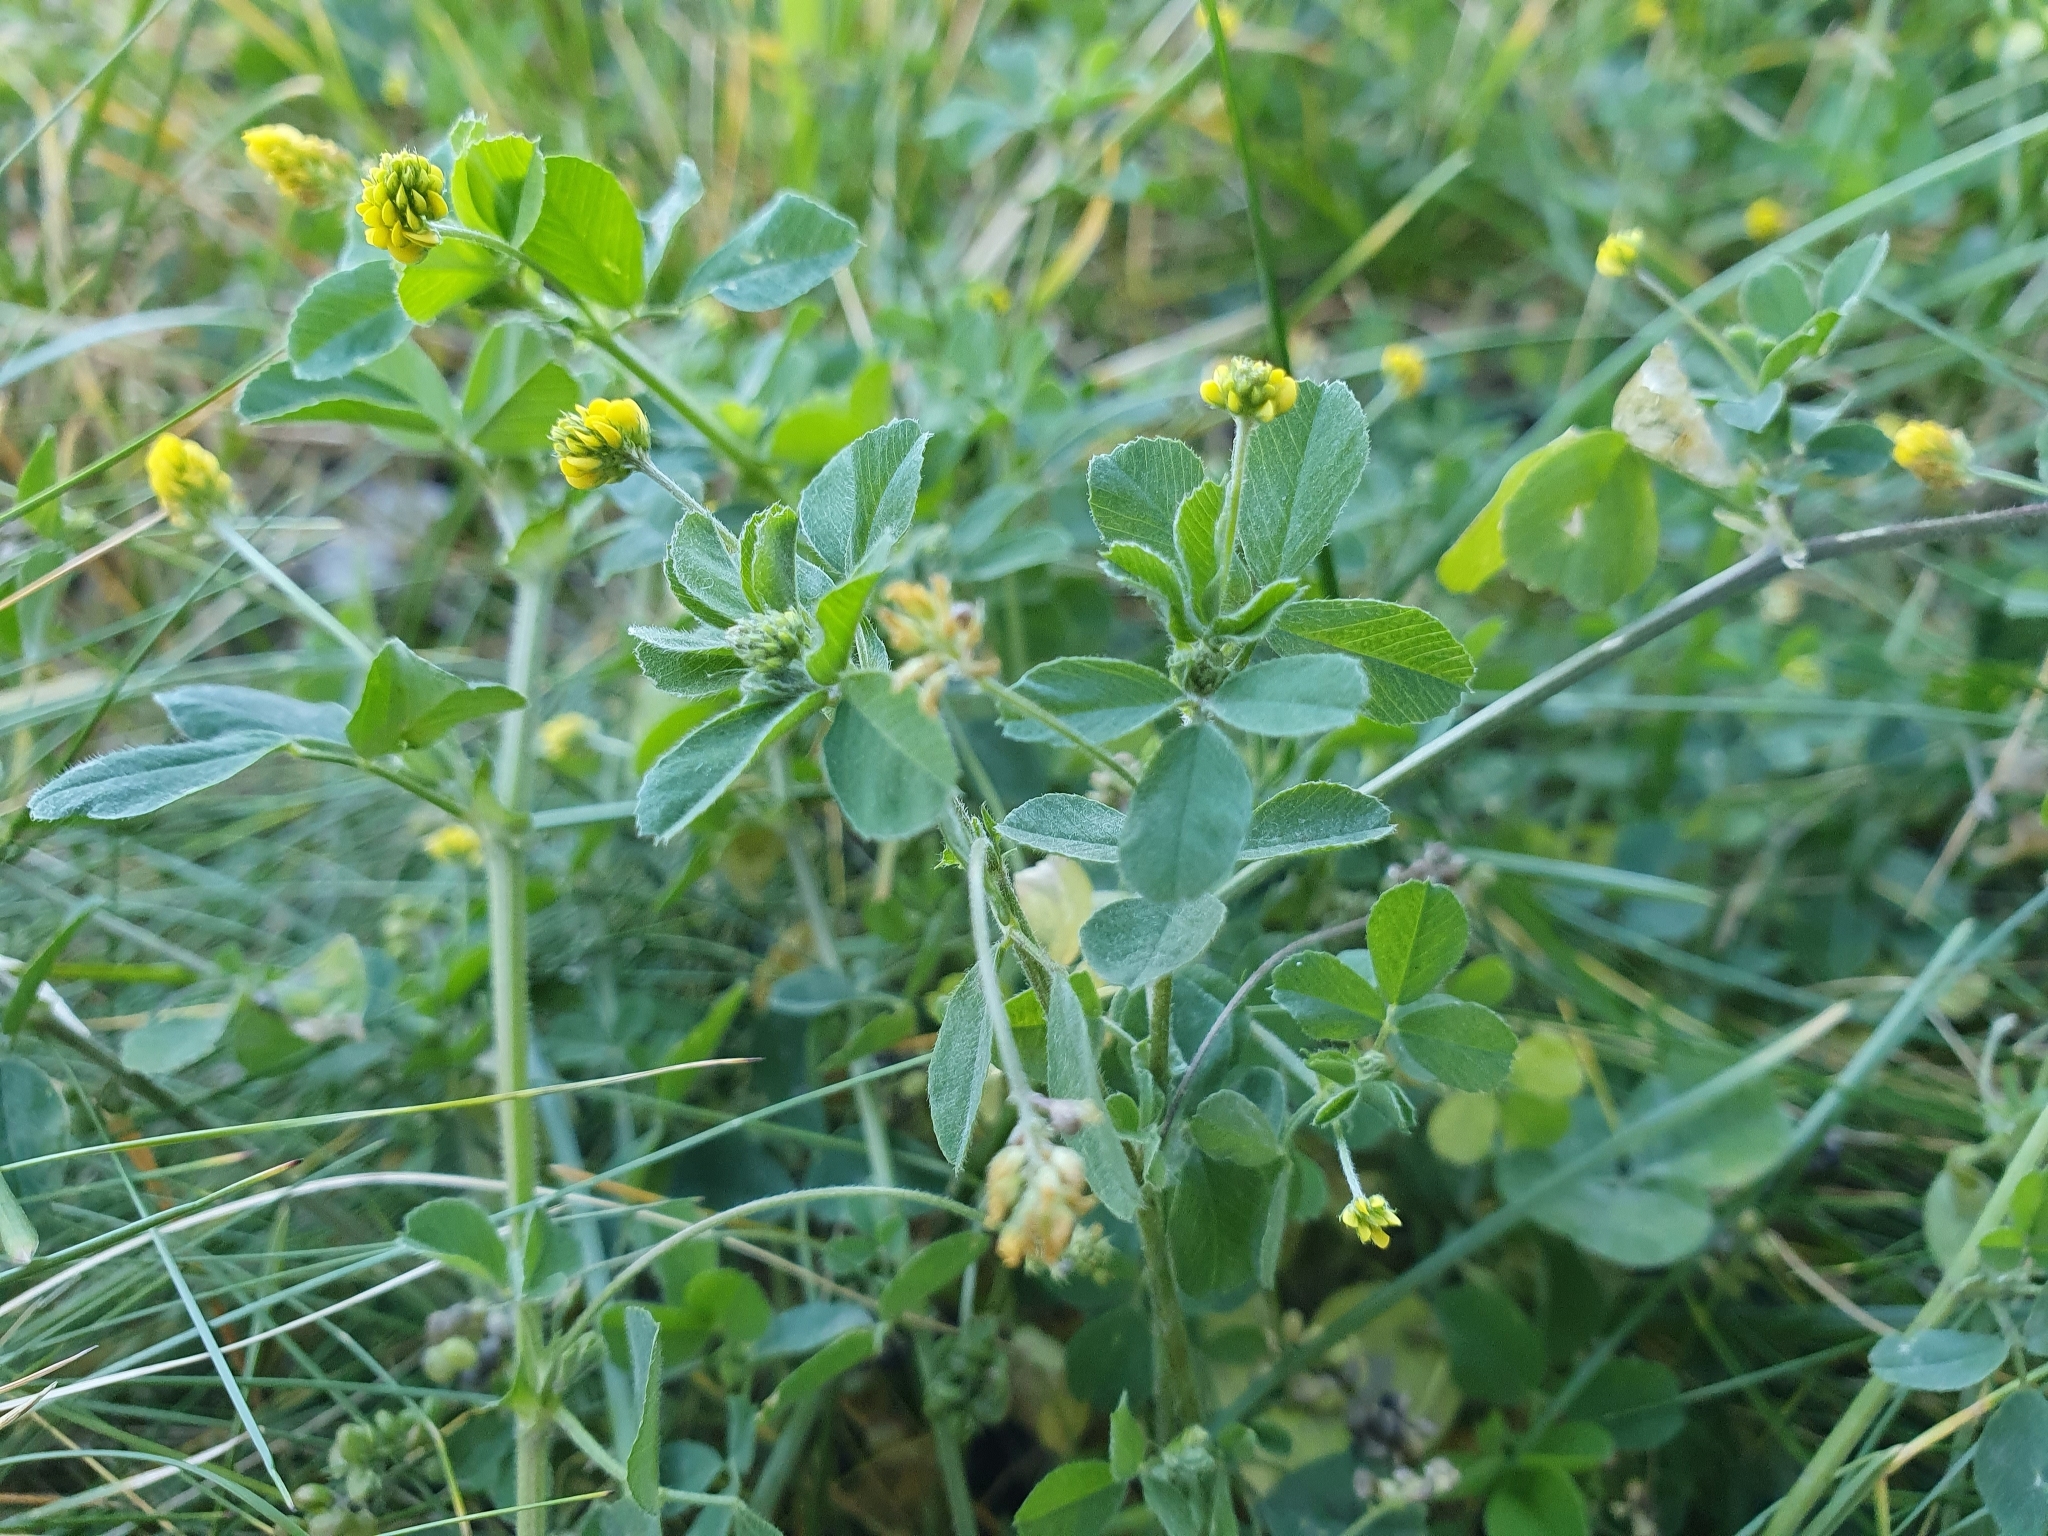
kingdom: Plantae
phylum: Tracheophyta
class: Magnoliopsida
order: Fabales
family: Fabaceae
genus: Medicago
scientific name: Medicago lupulina
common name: Black medick
